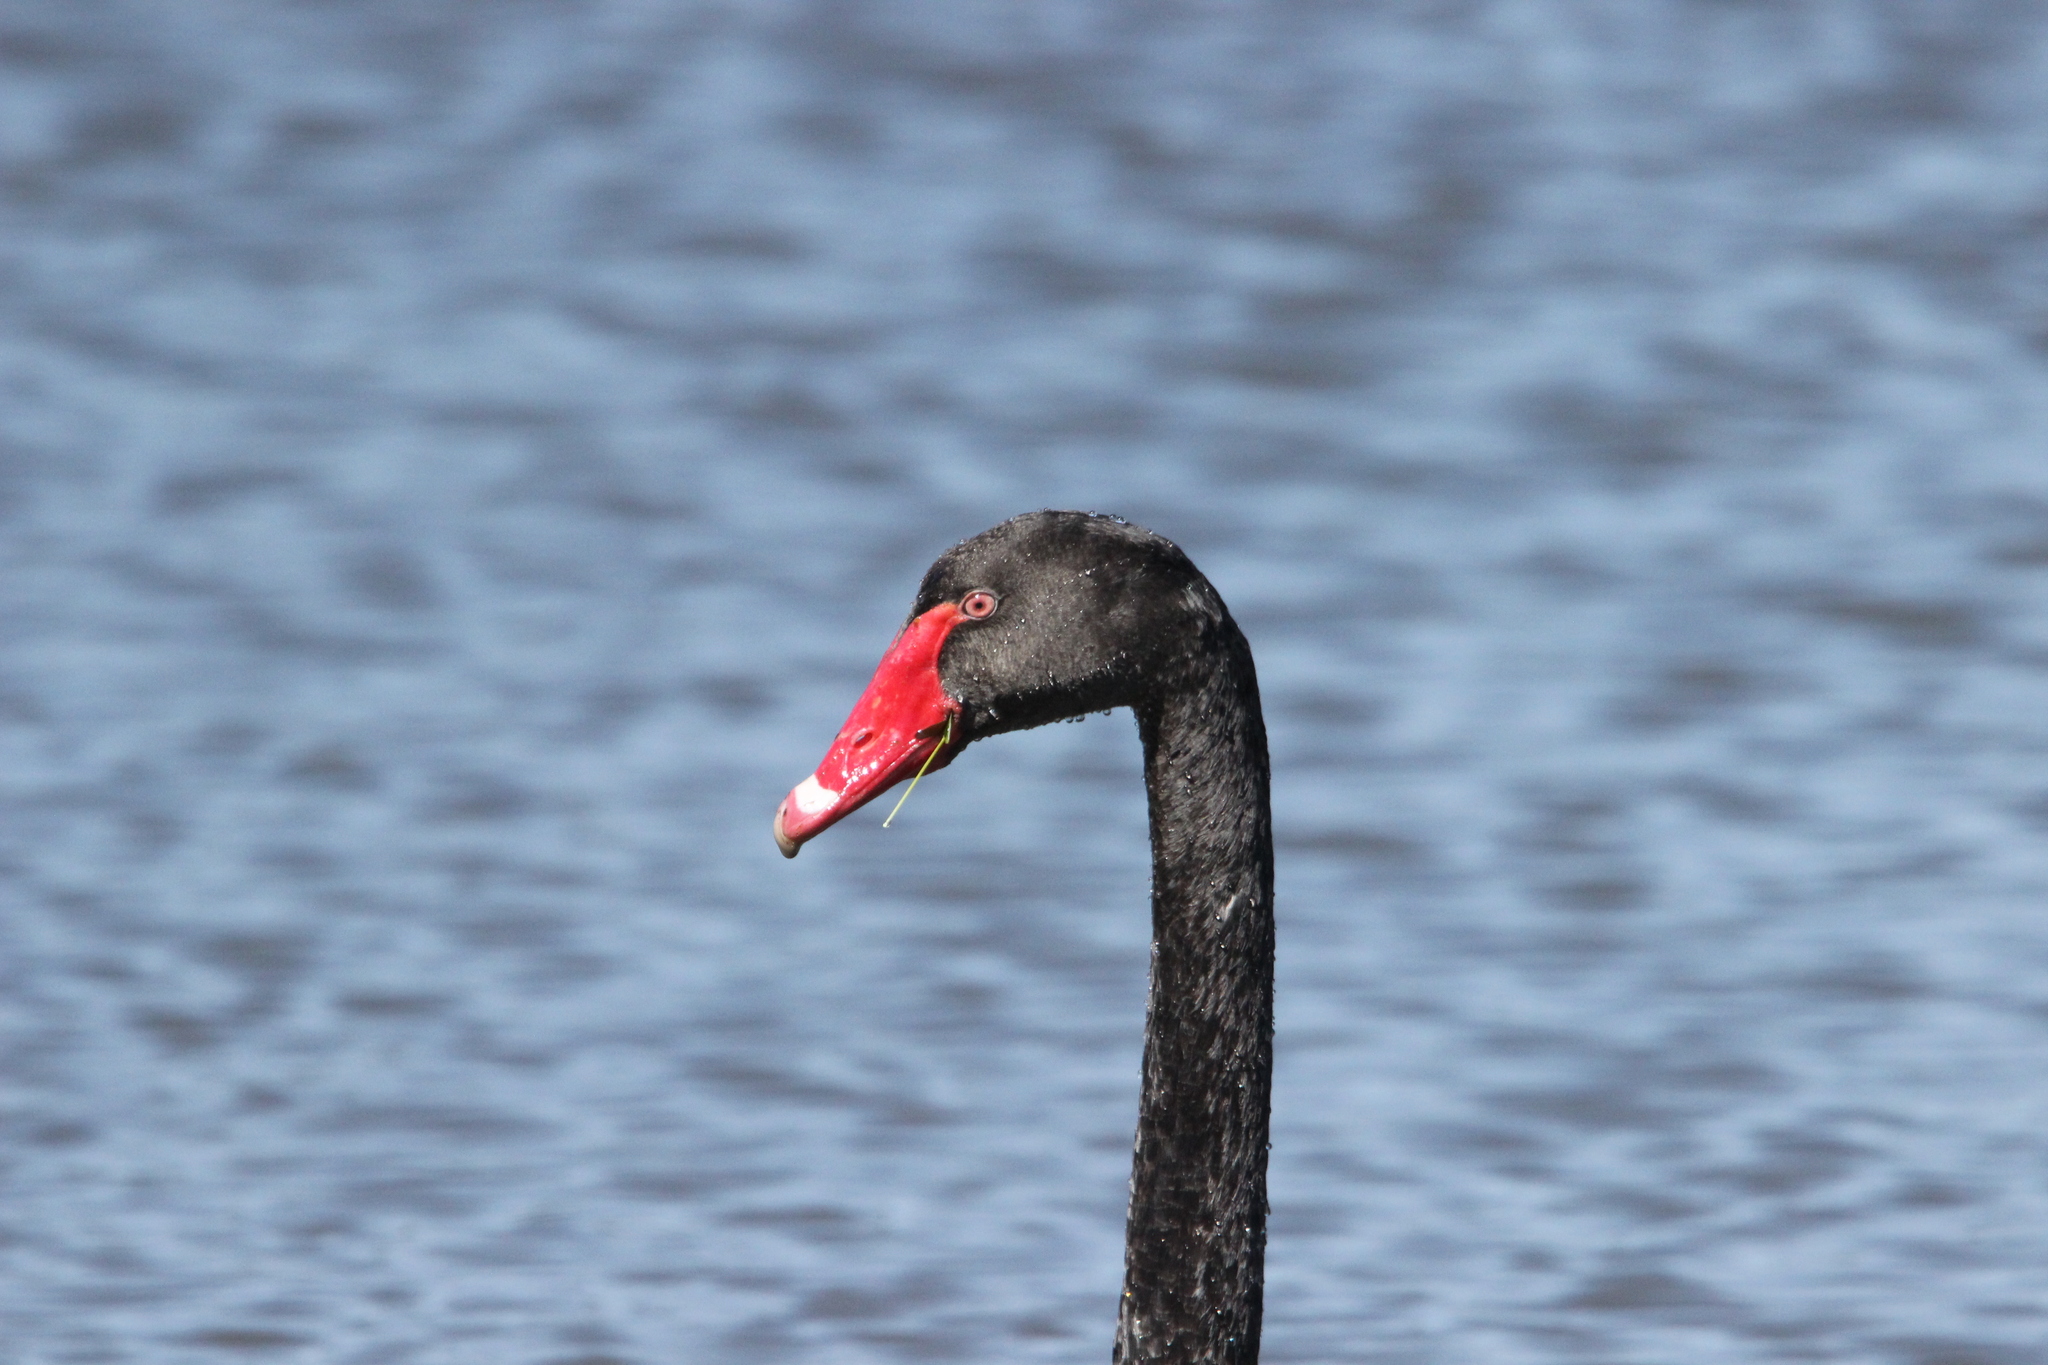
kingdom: Animalia
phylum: Chordata
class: Aves
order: Anseriformes
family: Anatidae
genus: Cygnus
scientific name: Cygnus atratus
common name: Black swan
